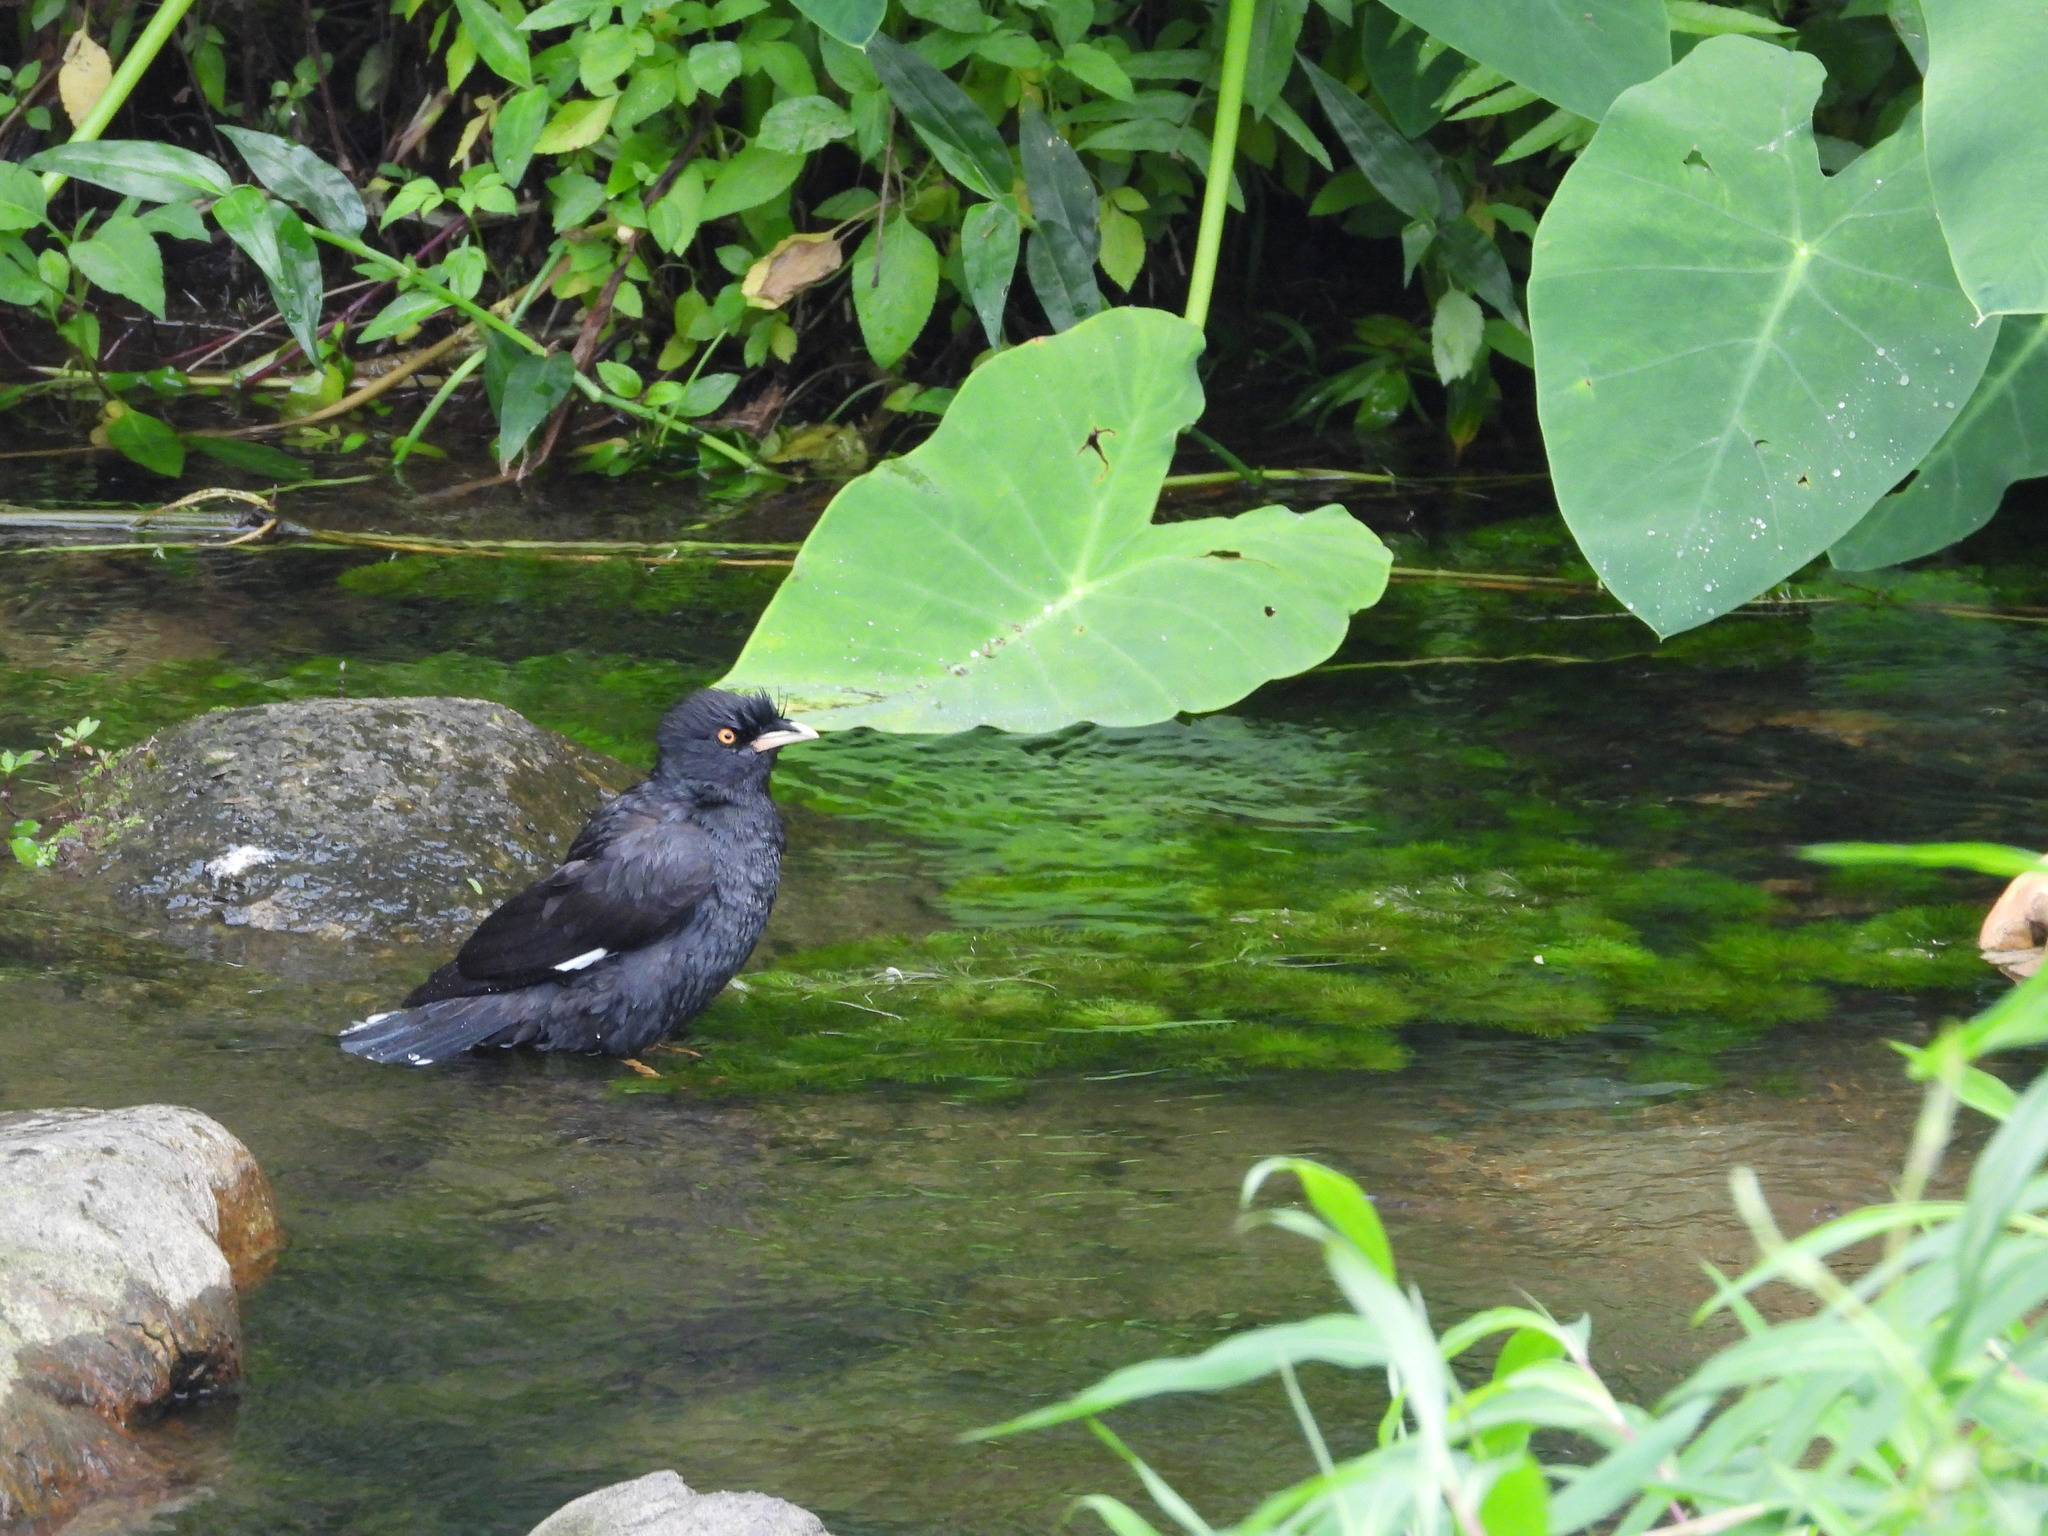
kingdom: Animalia
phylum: Chordata
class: Aves
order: Passeriformes
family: Sturnidae
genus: Acridotheres
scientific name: Acridotheres cristatellus
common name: Crested myna
